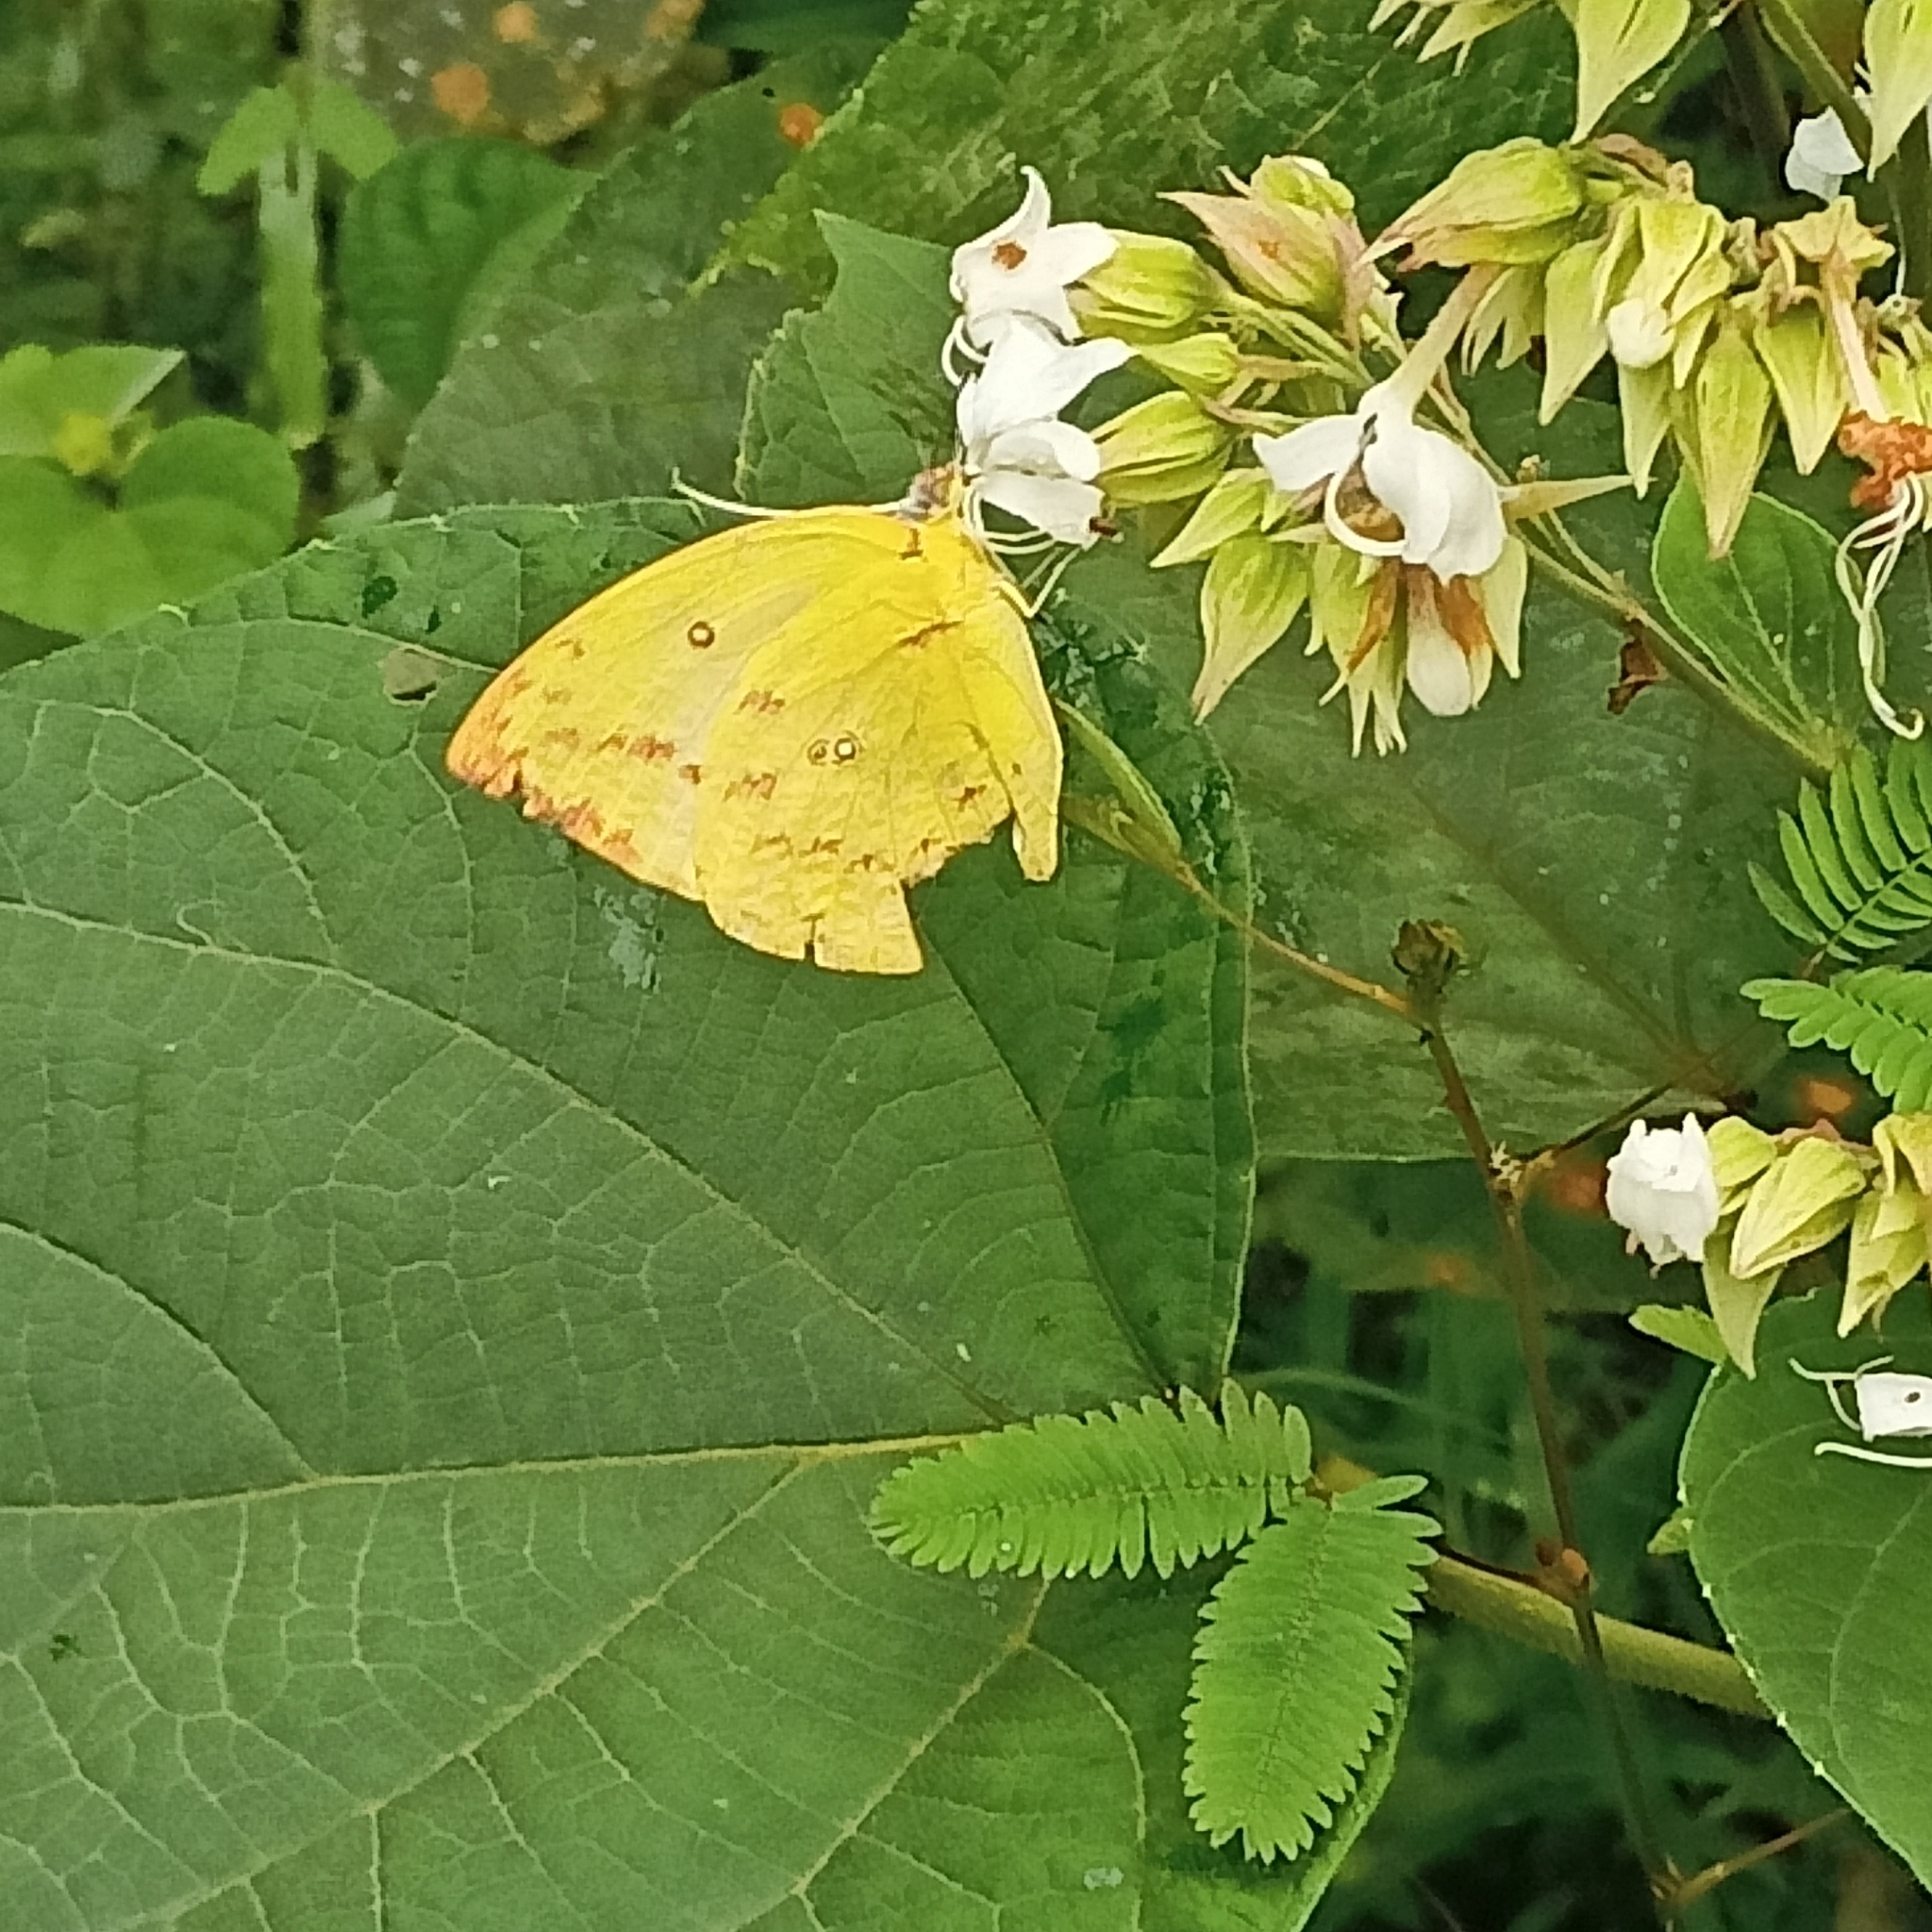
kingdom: Animalia
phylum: Arthropoda
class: Insecta
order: Lepidoptera
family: Pieridae
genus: Catopsilia
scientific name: Catopsilia pomona
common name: Common emigrant
